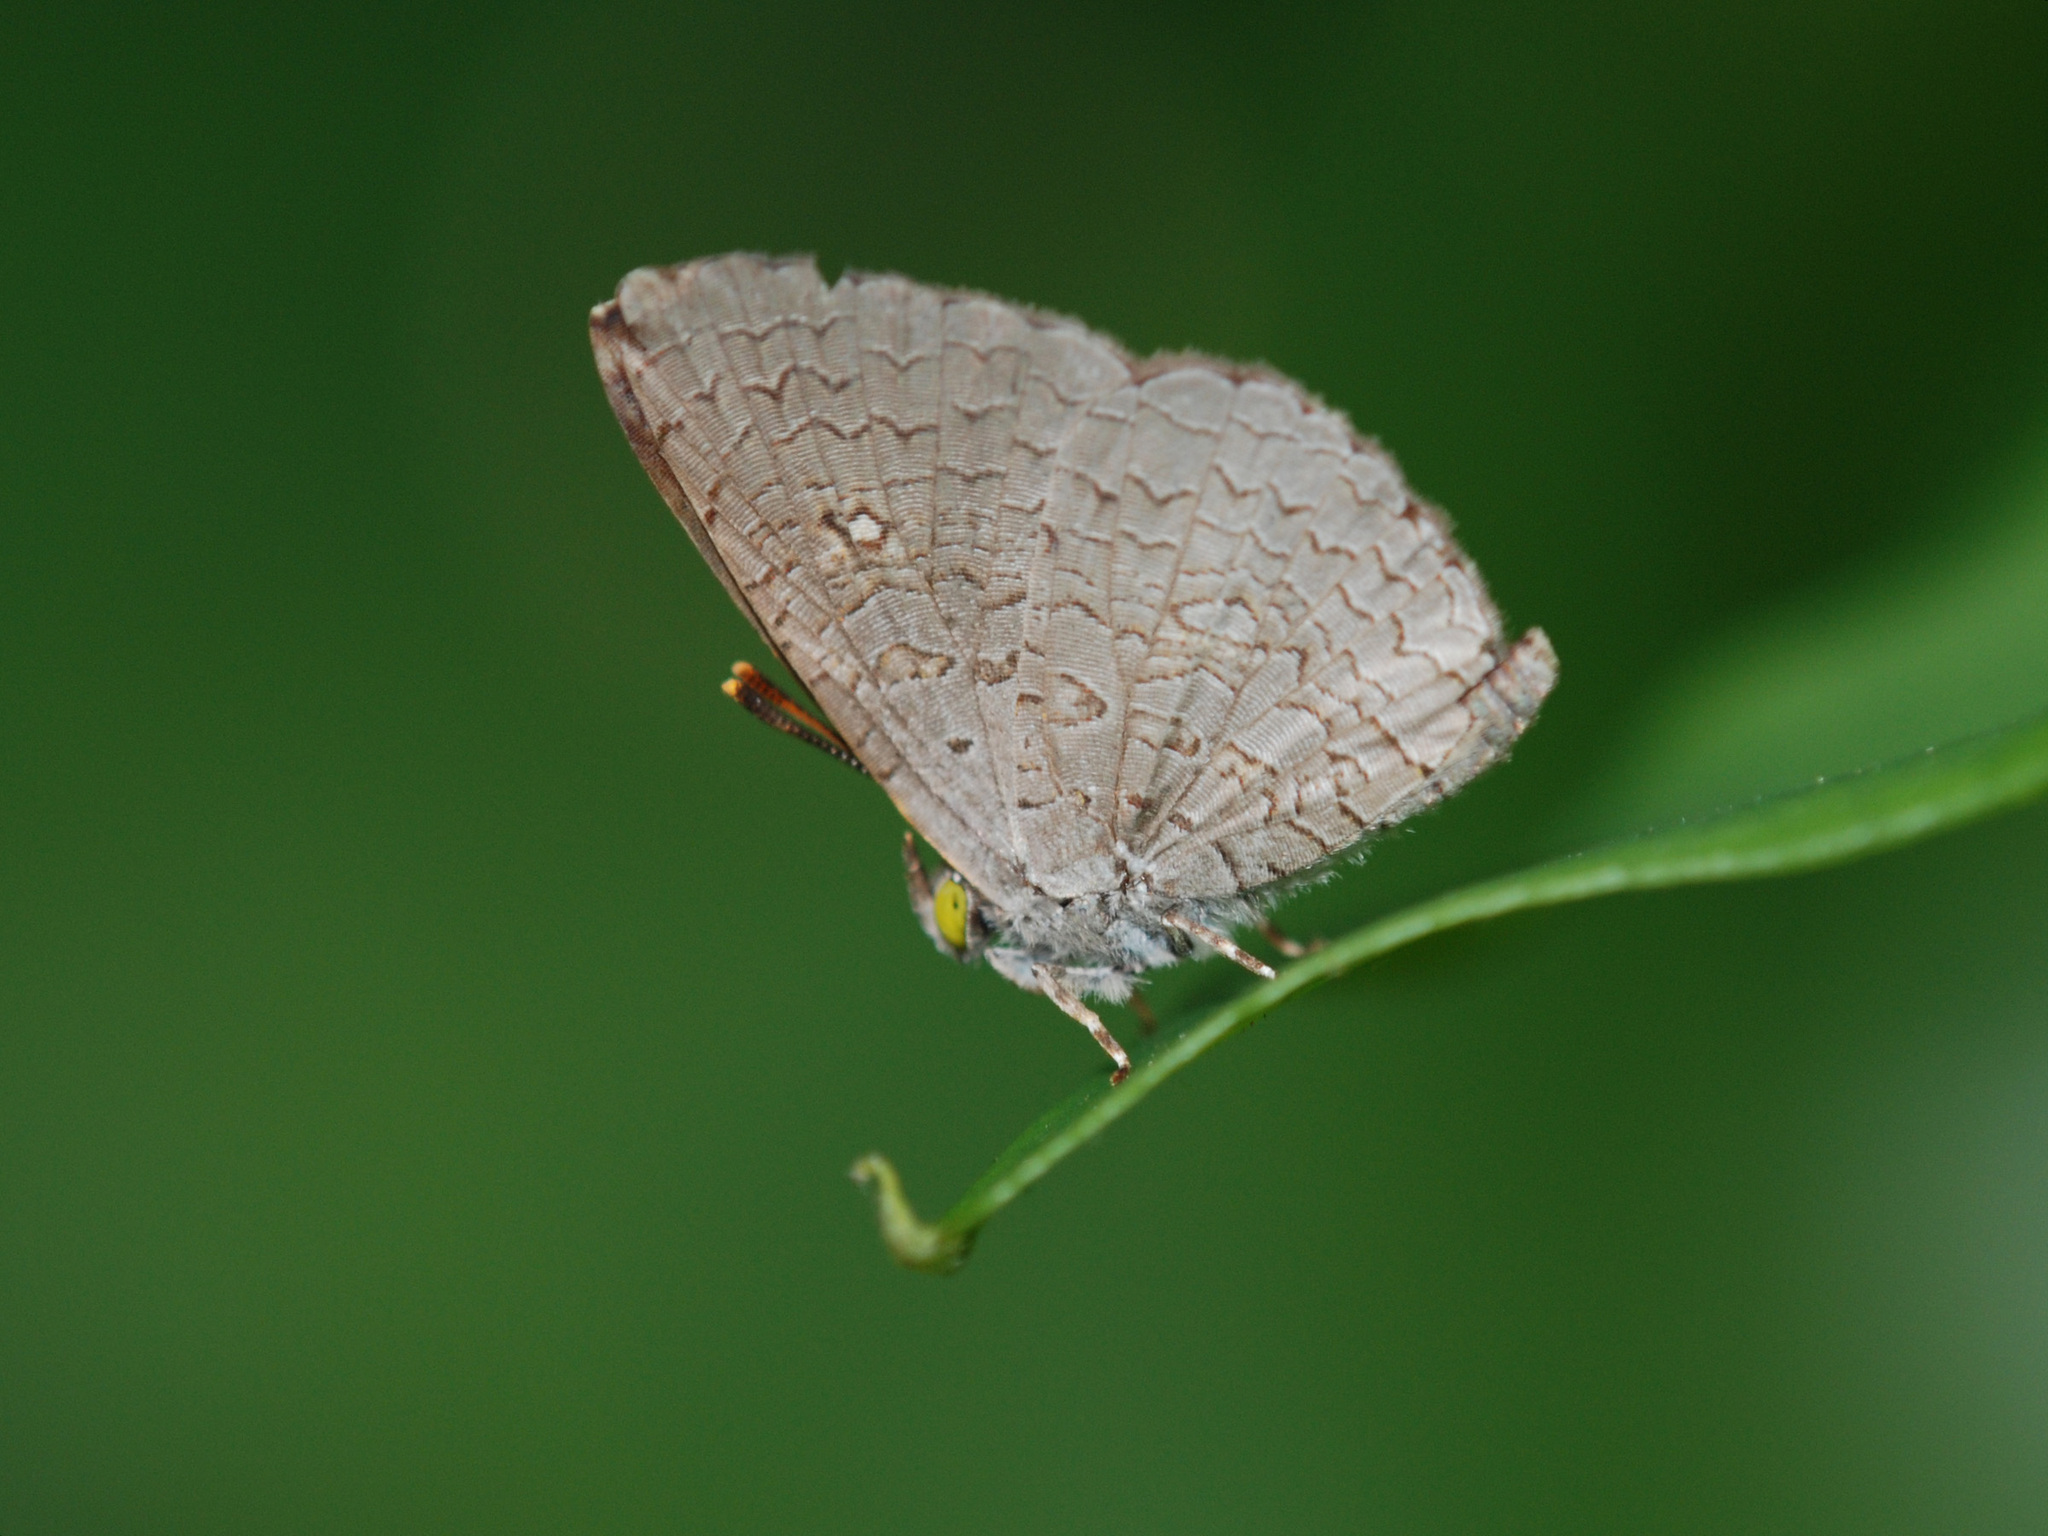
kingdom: Animalia
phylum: Arthropoda
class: Insecta
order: Lepidoptera
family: Lycaenidae
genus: Spalgis
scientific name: Spalgis epius
